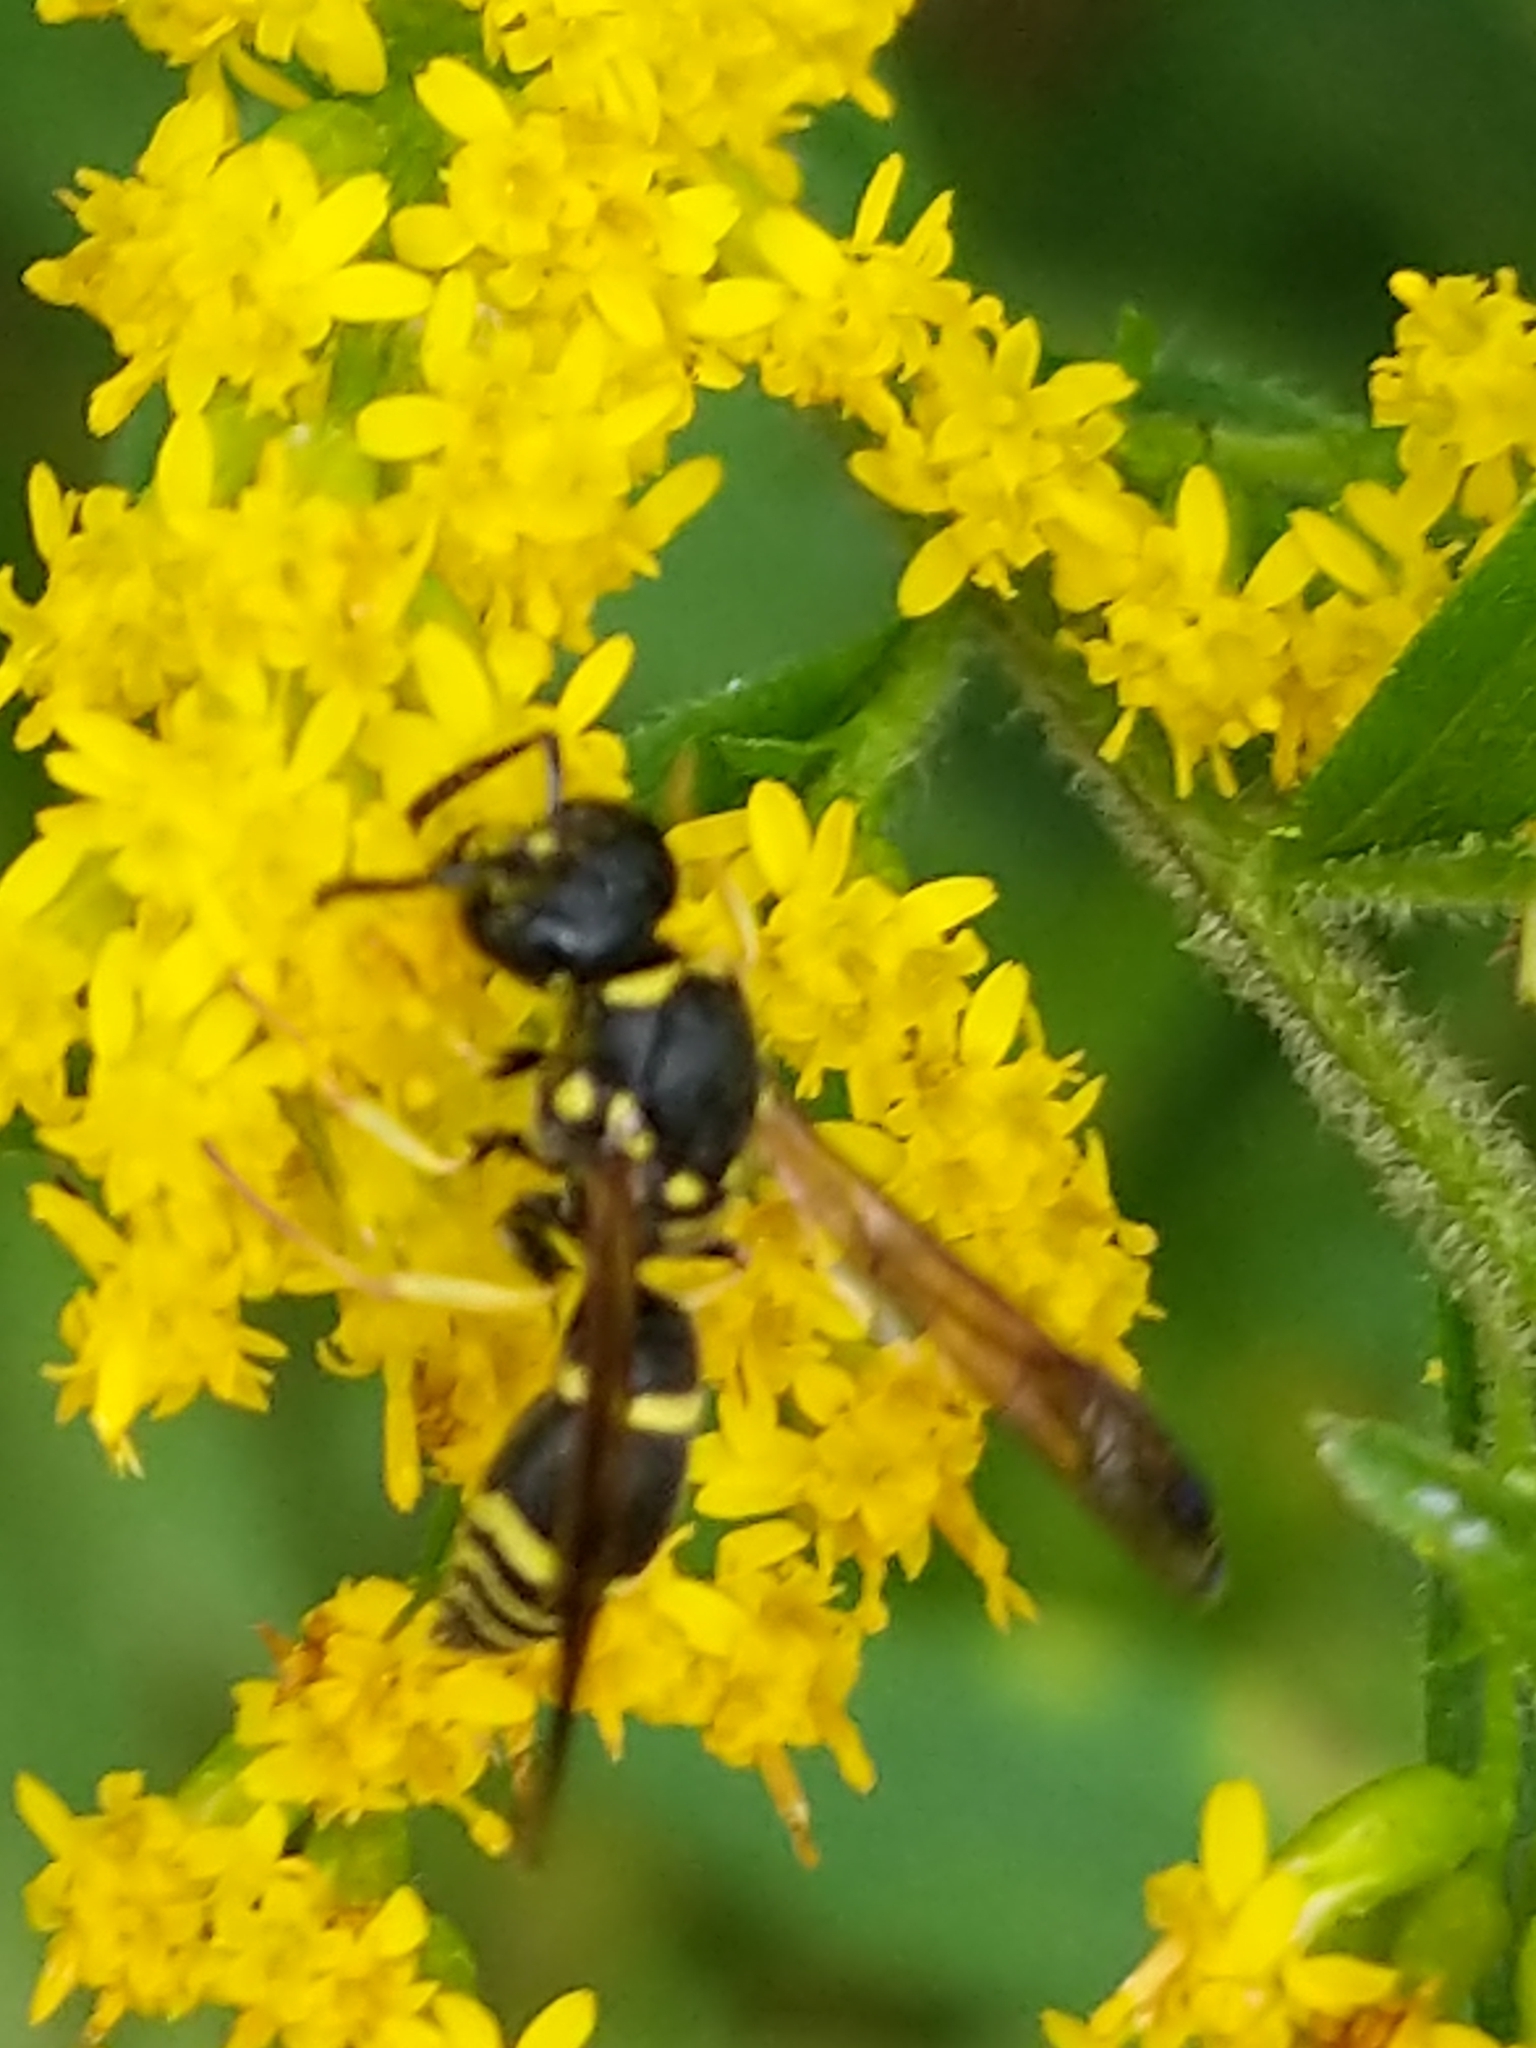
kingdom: Animalia
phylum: Arthropoda
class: Insecta
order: Hymenoptera
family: Vespidae
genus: Ancistrocerus
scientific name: Ancistrocerus adiabatus
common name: Bramble mason wasp
